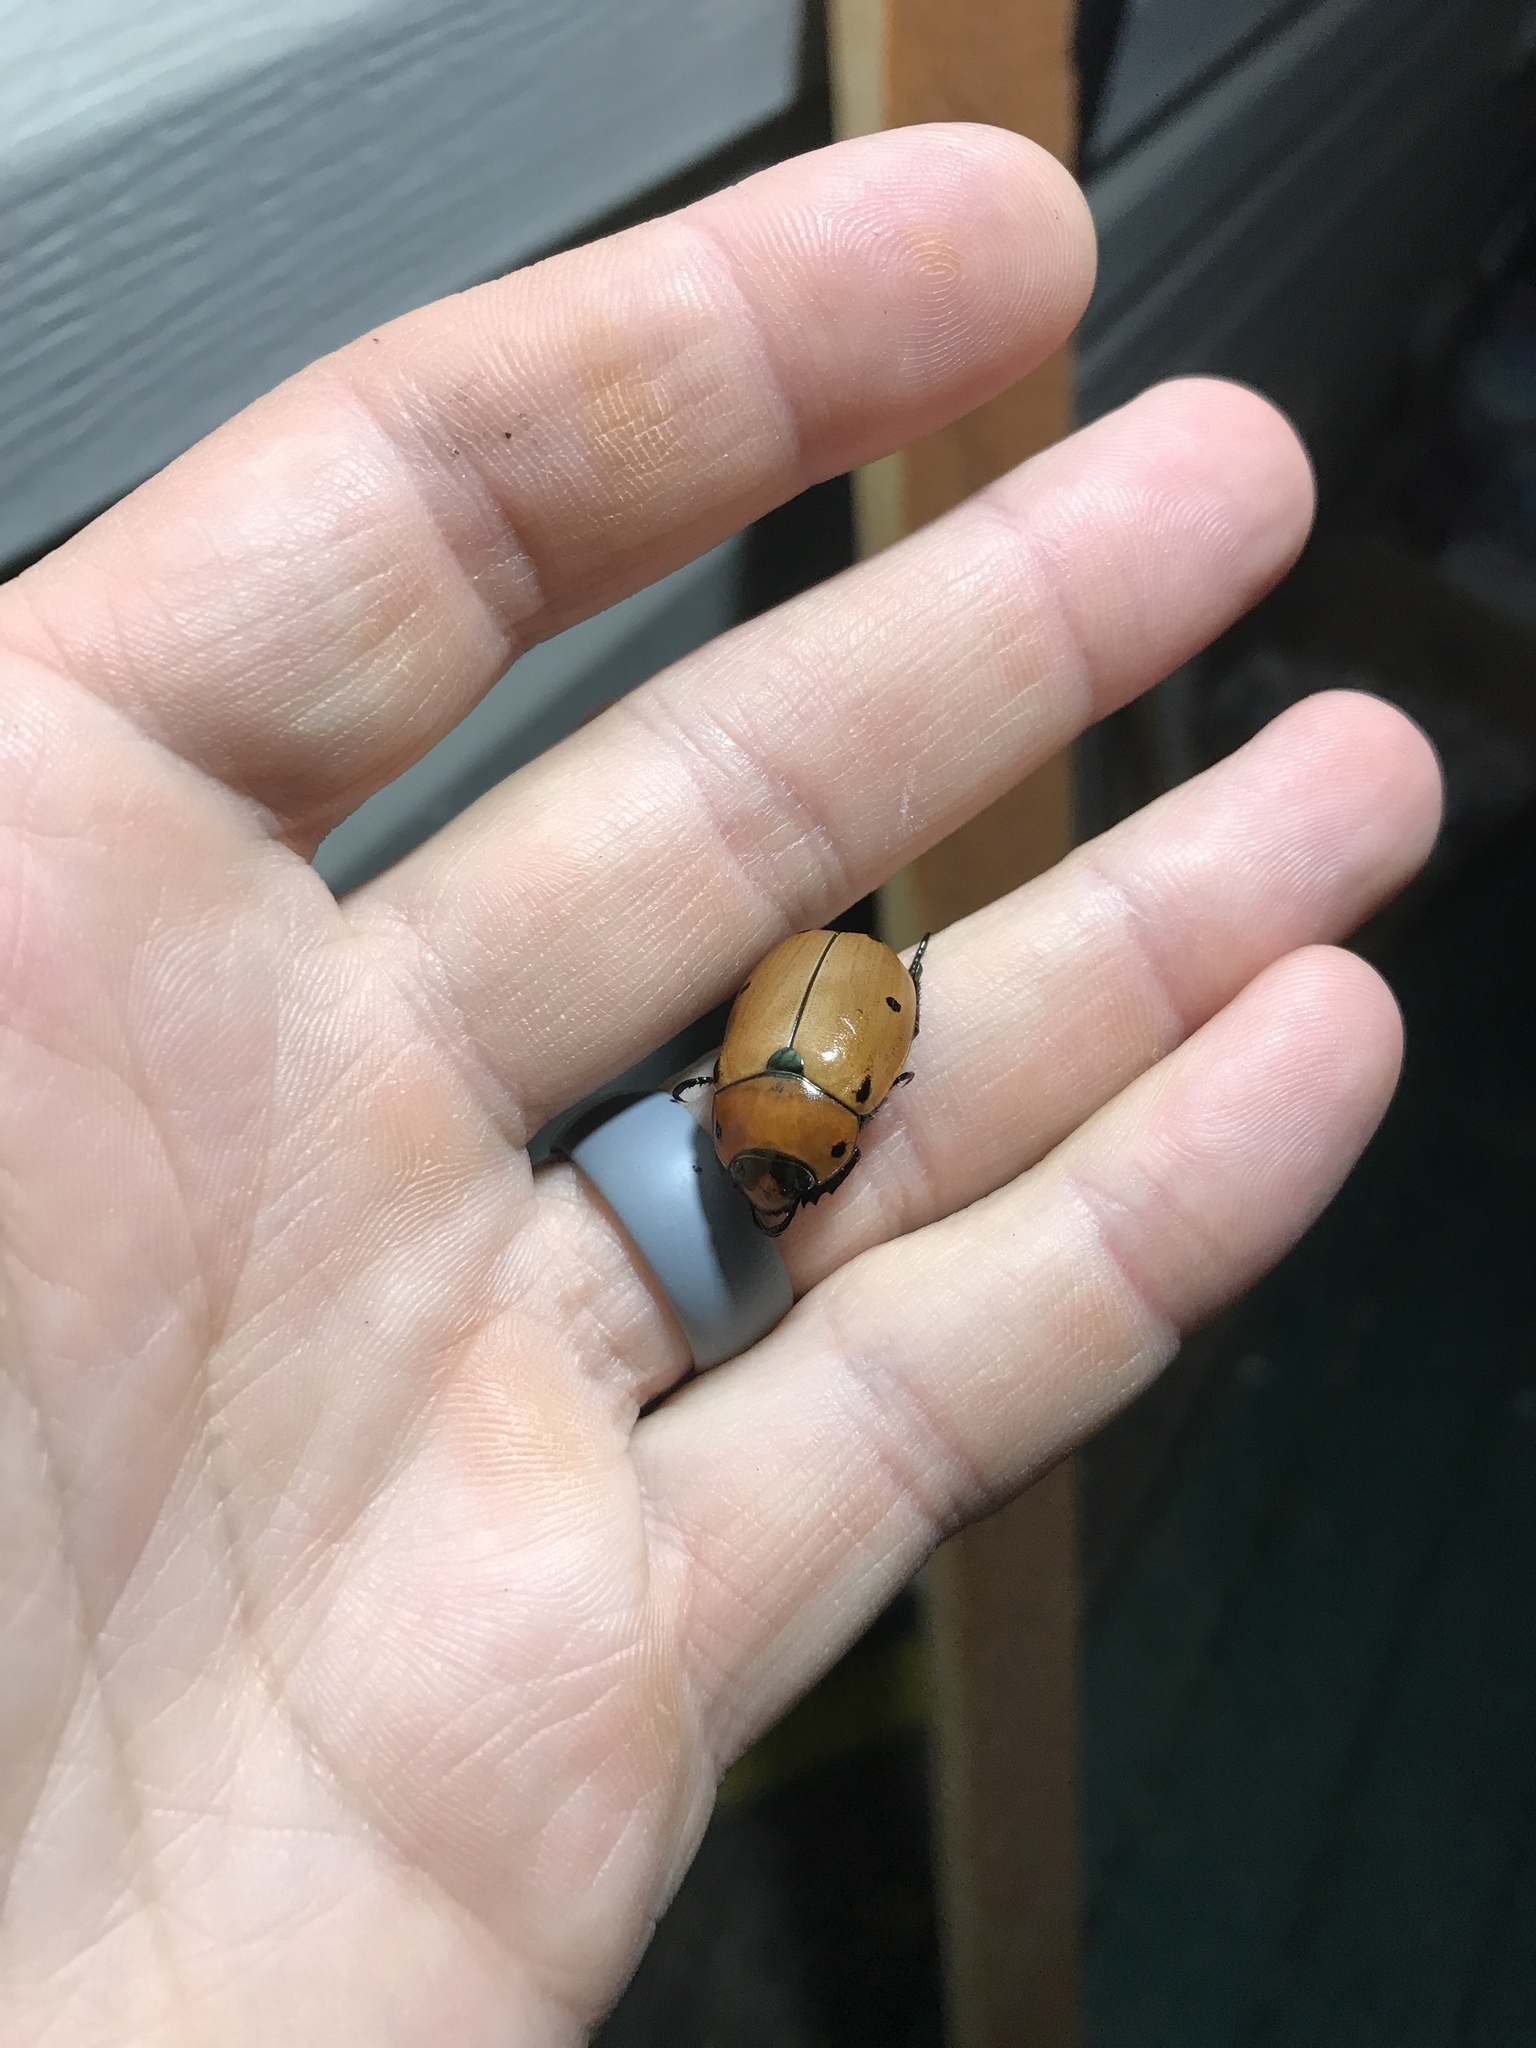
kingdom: Animalia
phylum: Arthropoda
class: Insecta
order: Coleoptera
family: Scarabaeidae
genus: Pelidnota
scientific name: Pelidnota punctata
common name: Grapevine beetle
